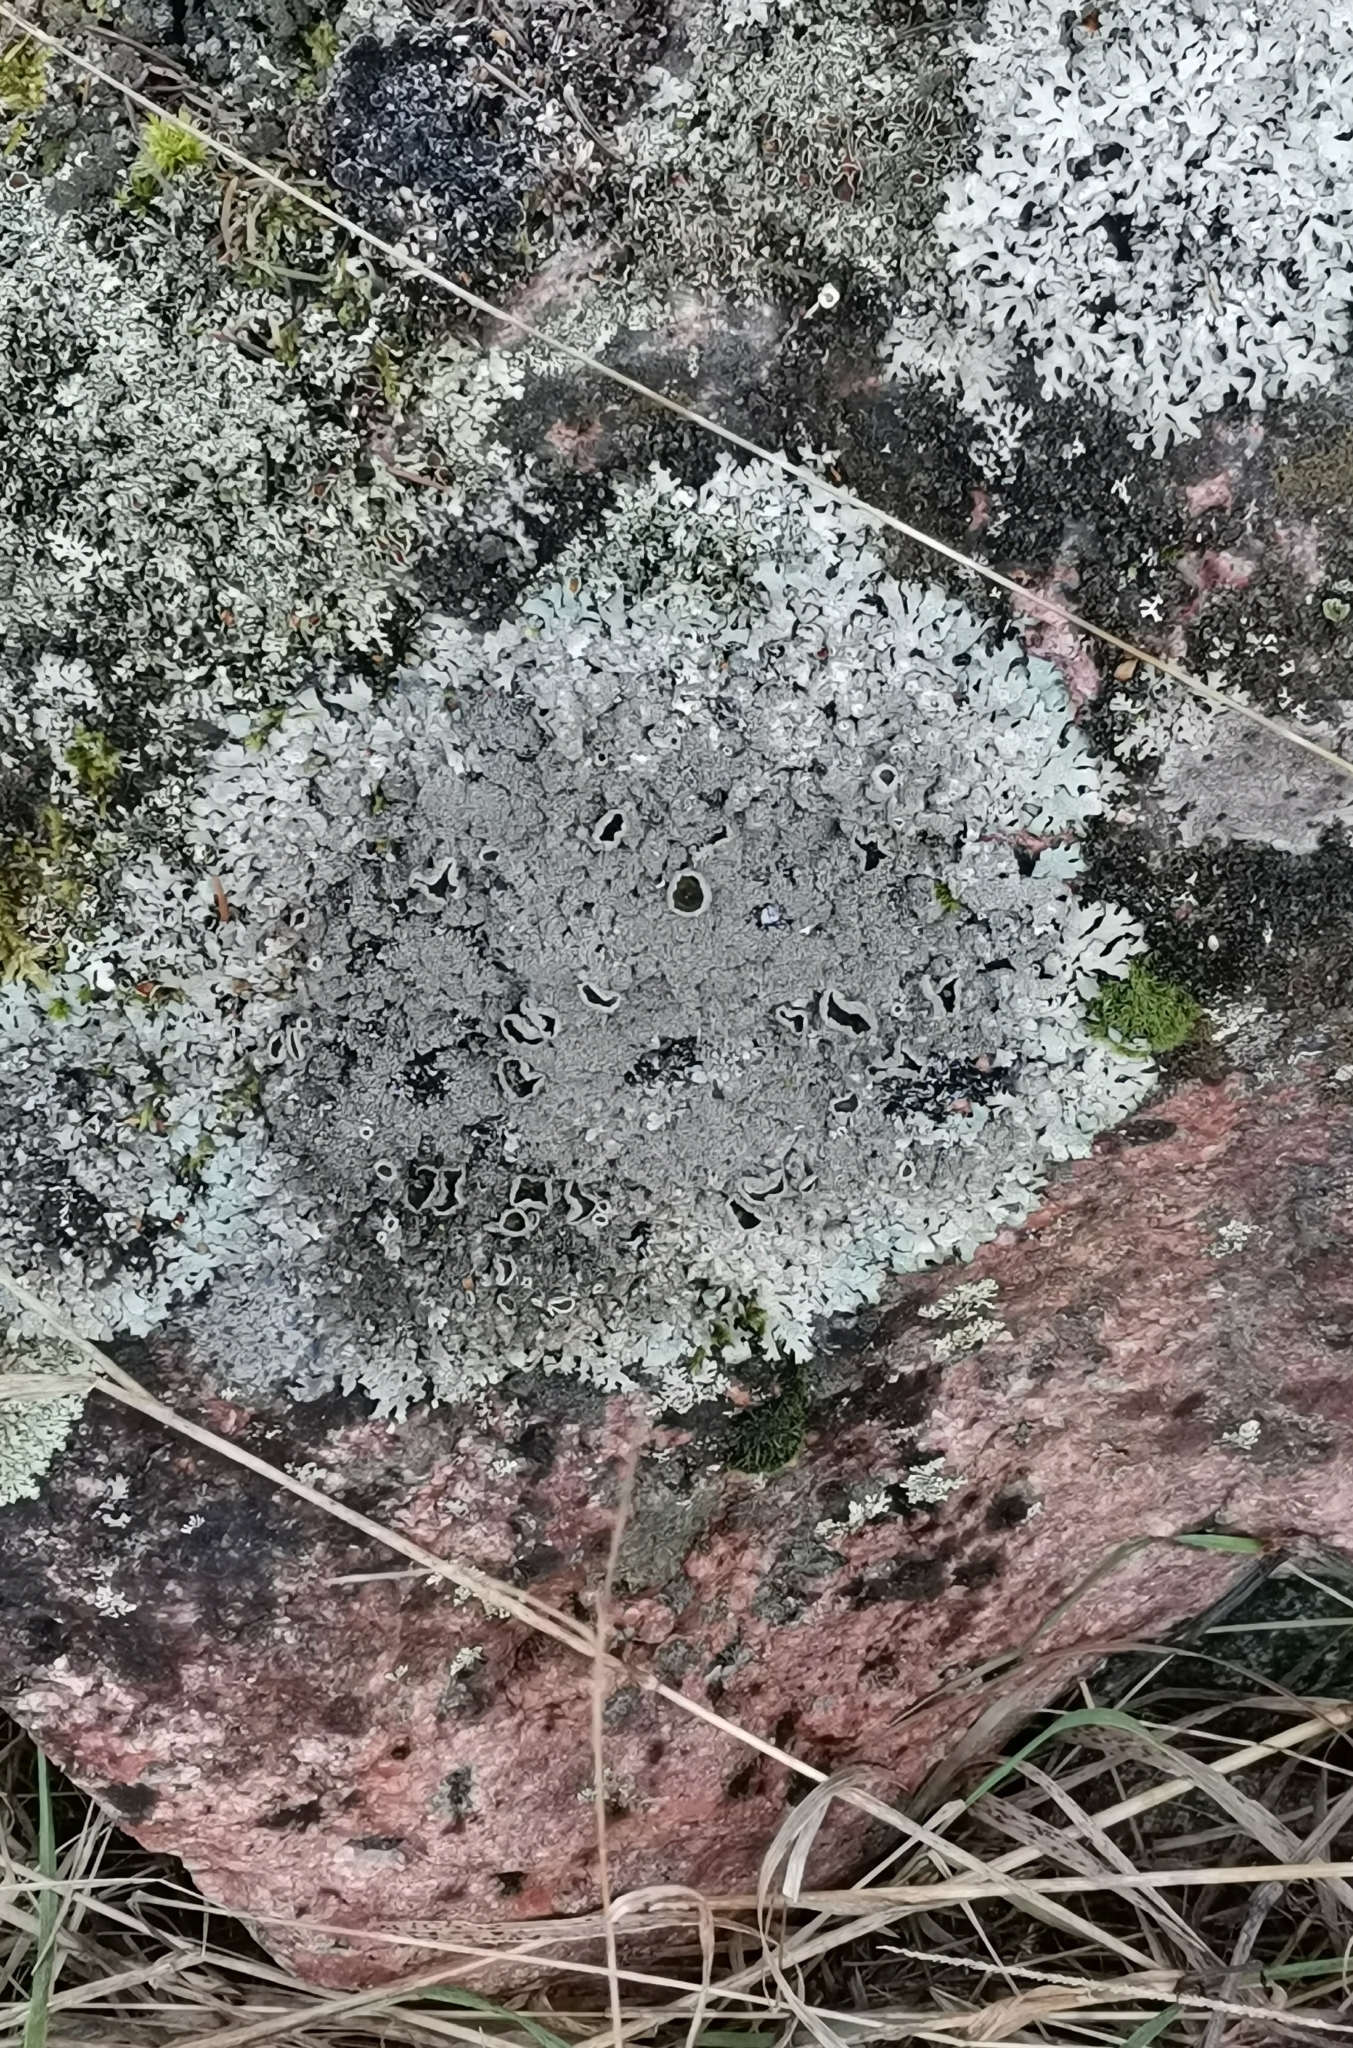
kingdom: Fungi
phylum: Ascomycota
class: Lecanoromycetes
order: Lecanorales
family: Parmeliaceae
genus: Xanthoparmelia
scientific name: Xanthoparmelia conspersa
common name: Peppered rock shield
